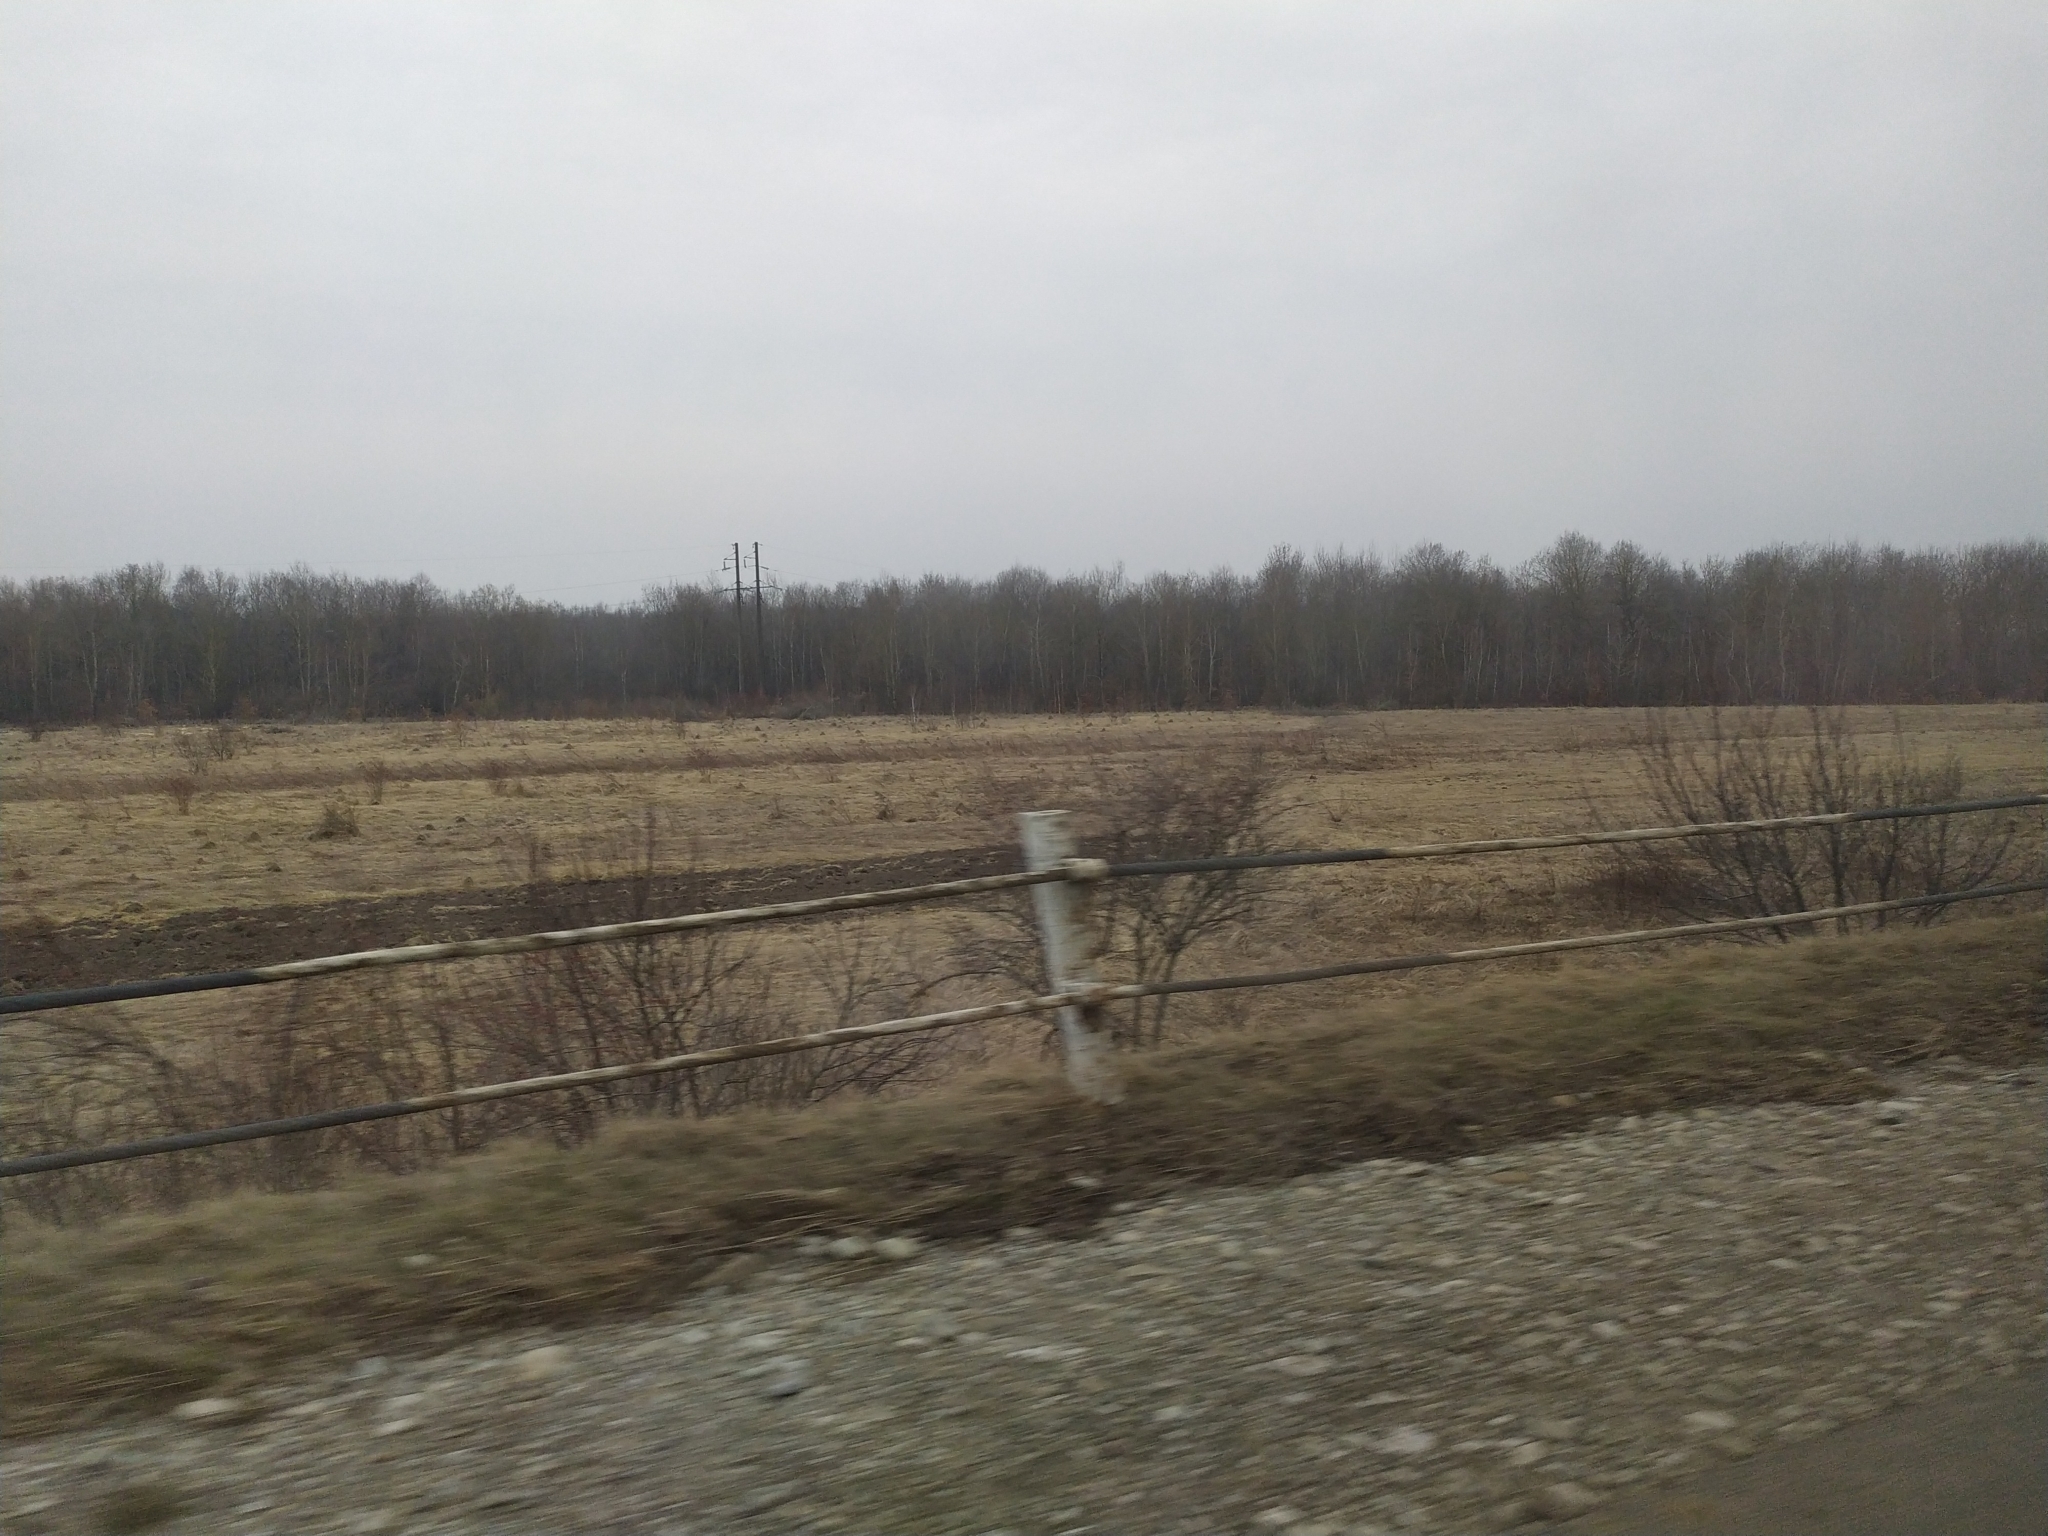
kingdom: Animalia
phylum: Chordata
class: Mammalia
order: Soricomorpha
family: Talpidae
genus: Talpa
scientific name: Talpa europaea
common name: European mole
